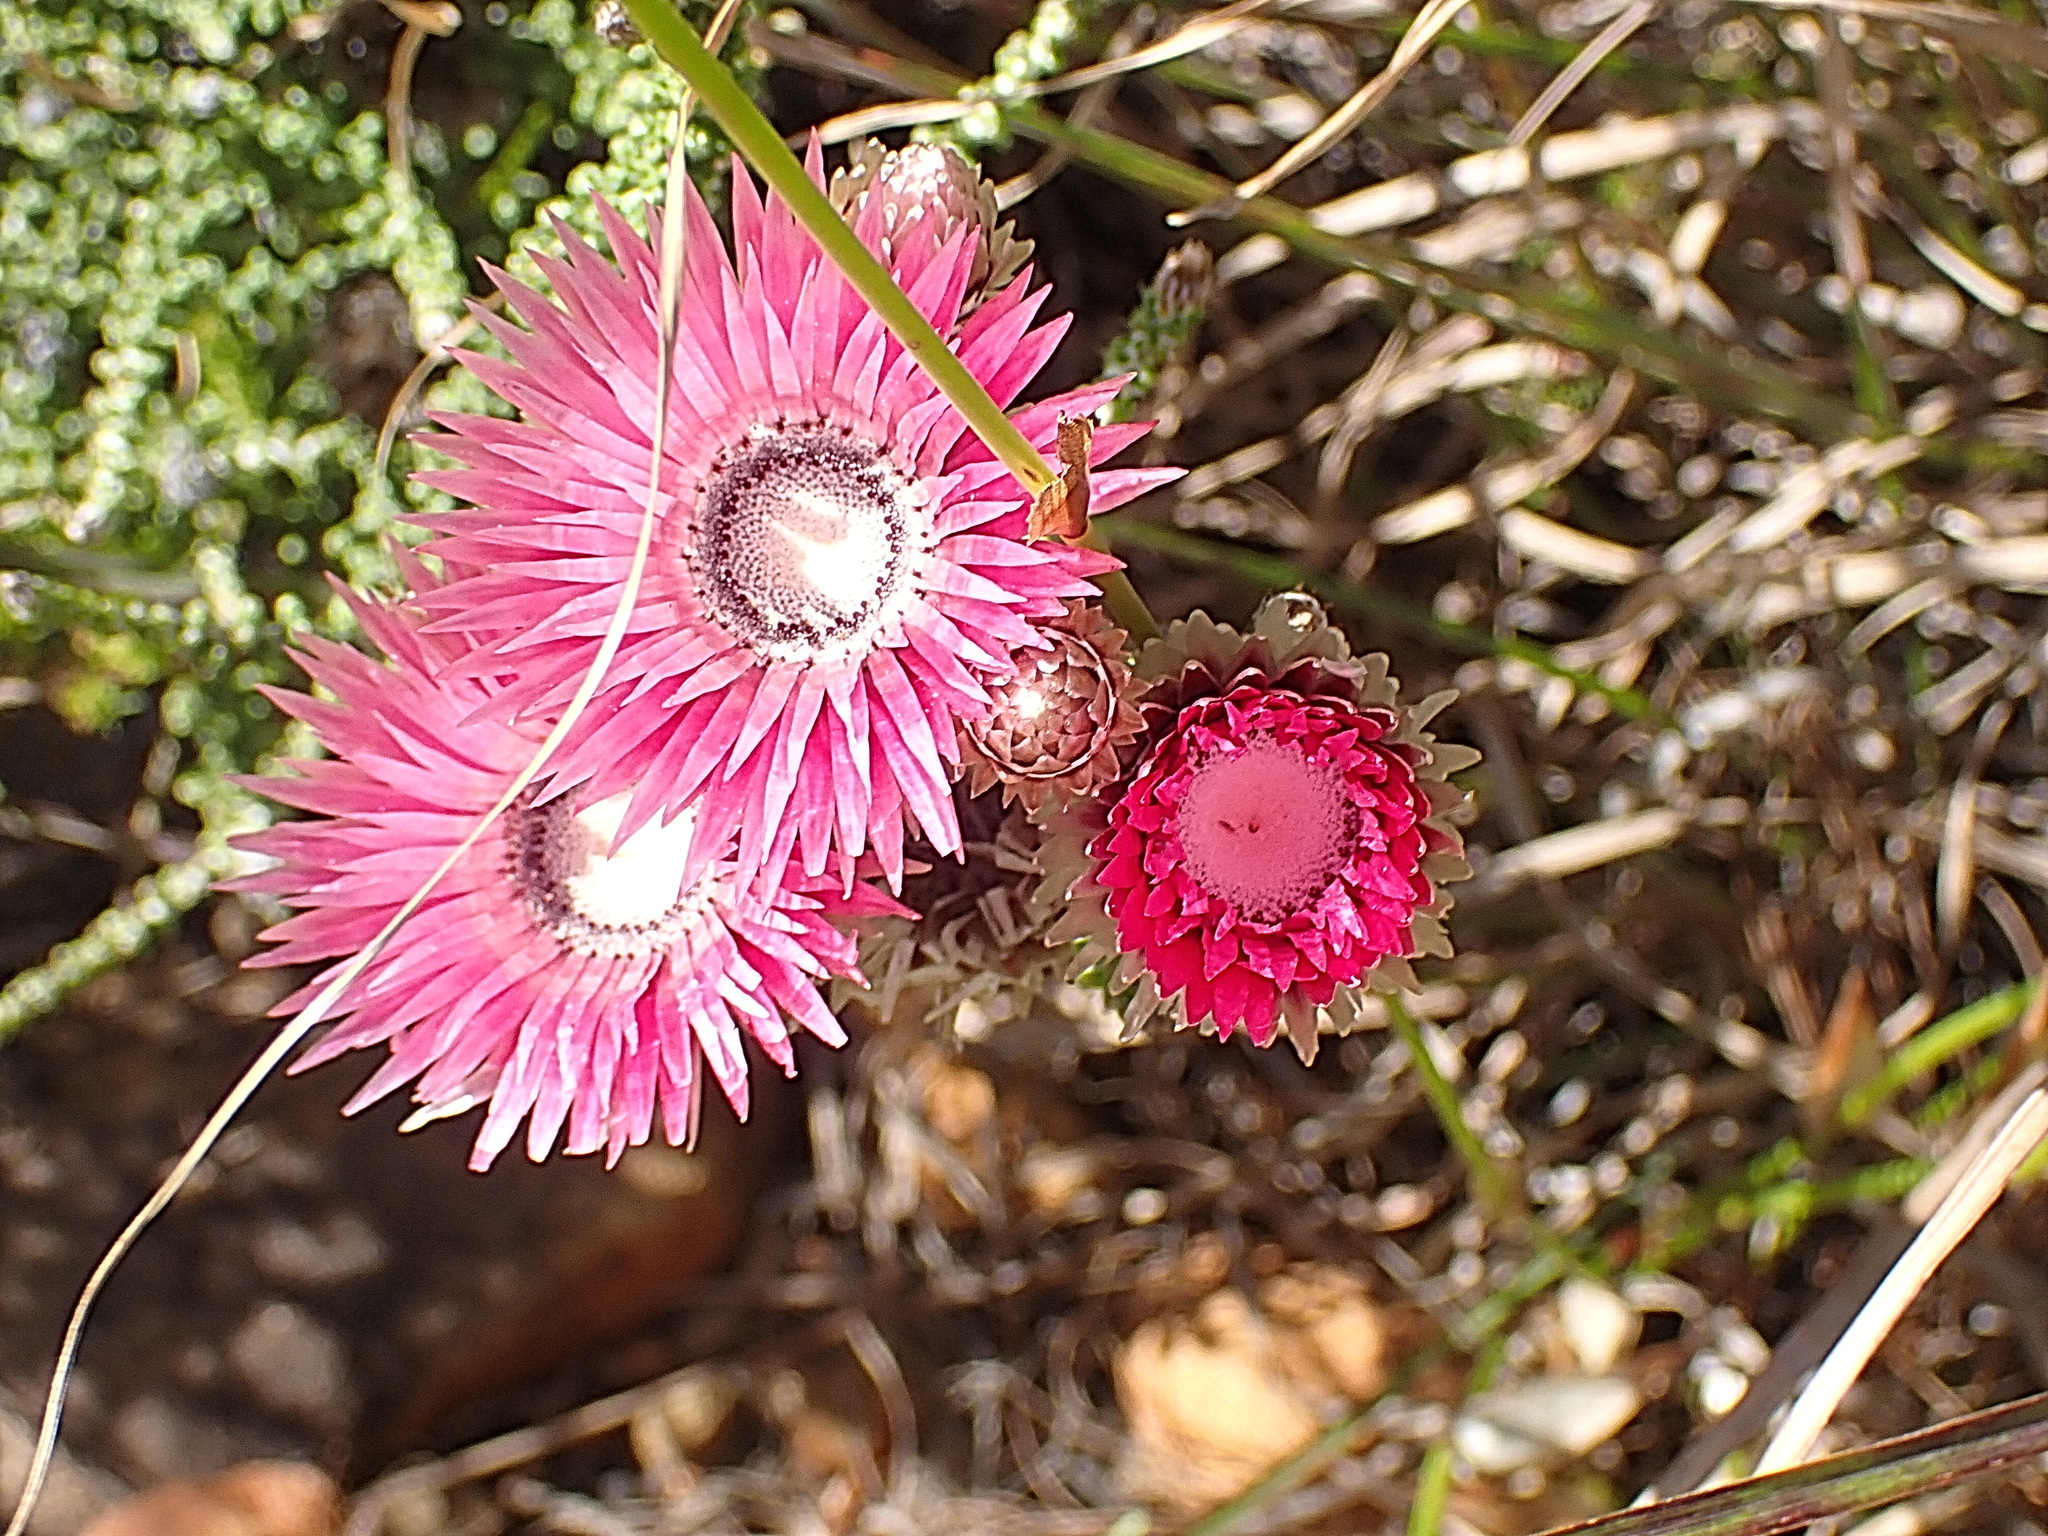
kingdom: Plantae
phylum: Tracheophyta
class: Magnoliopsida
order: Asterales
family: Asteraceae
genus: Phaenocoma
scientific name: Phaenocoma prolifera
